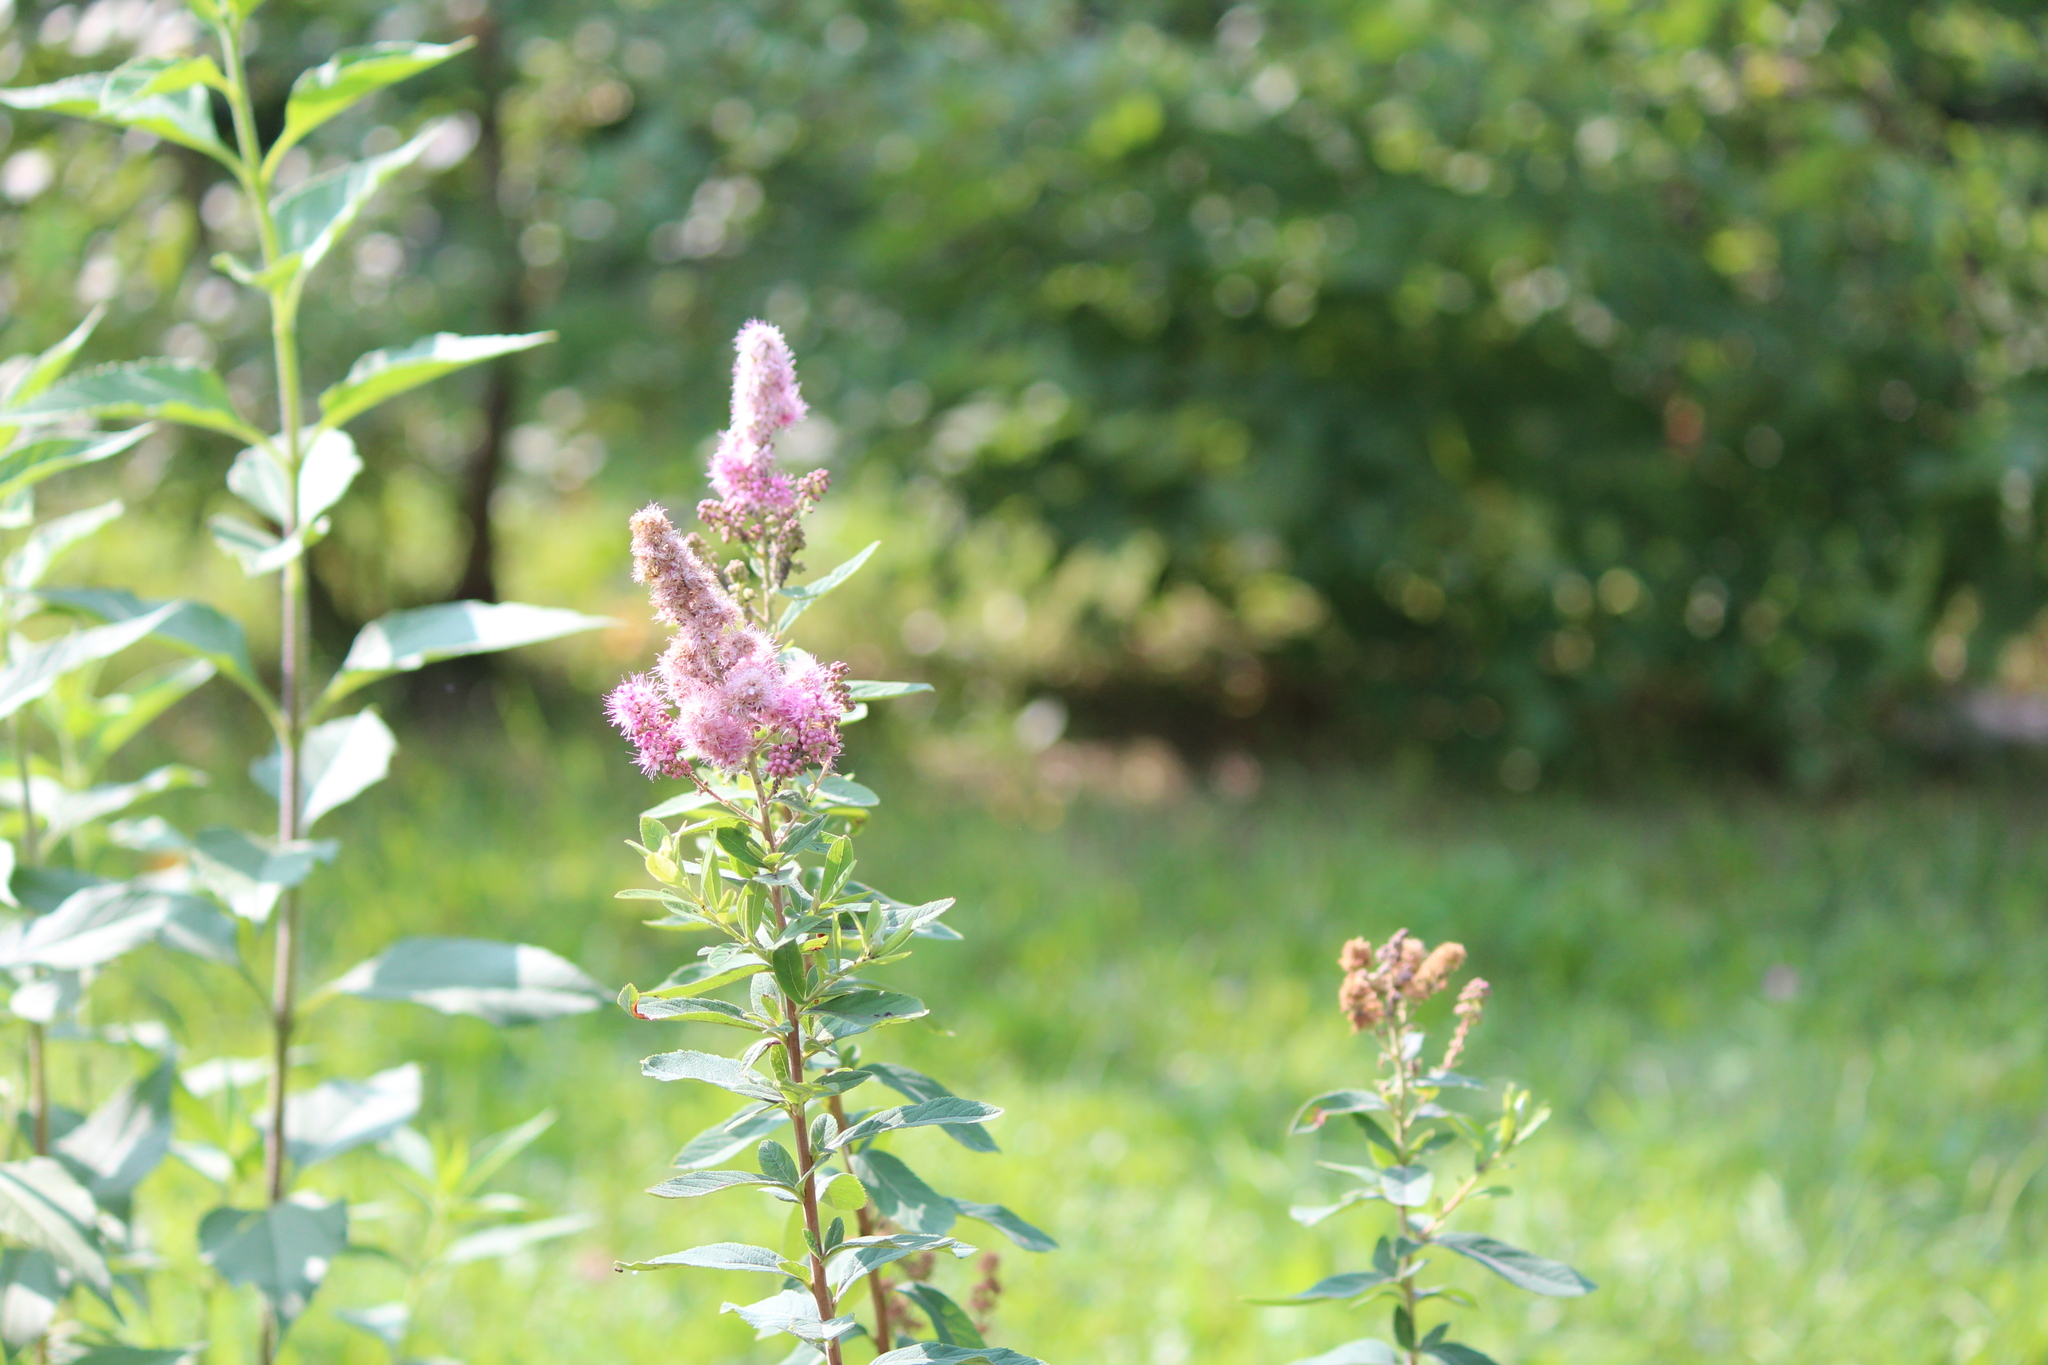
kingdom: Plantae
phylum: Tracheophyta
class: Magnoliopsida
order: Rosales
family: Rosaceae
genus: Spiraea
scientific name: Spiraea salicifolia
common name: Bridewort
